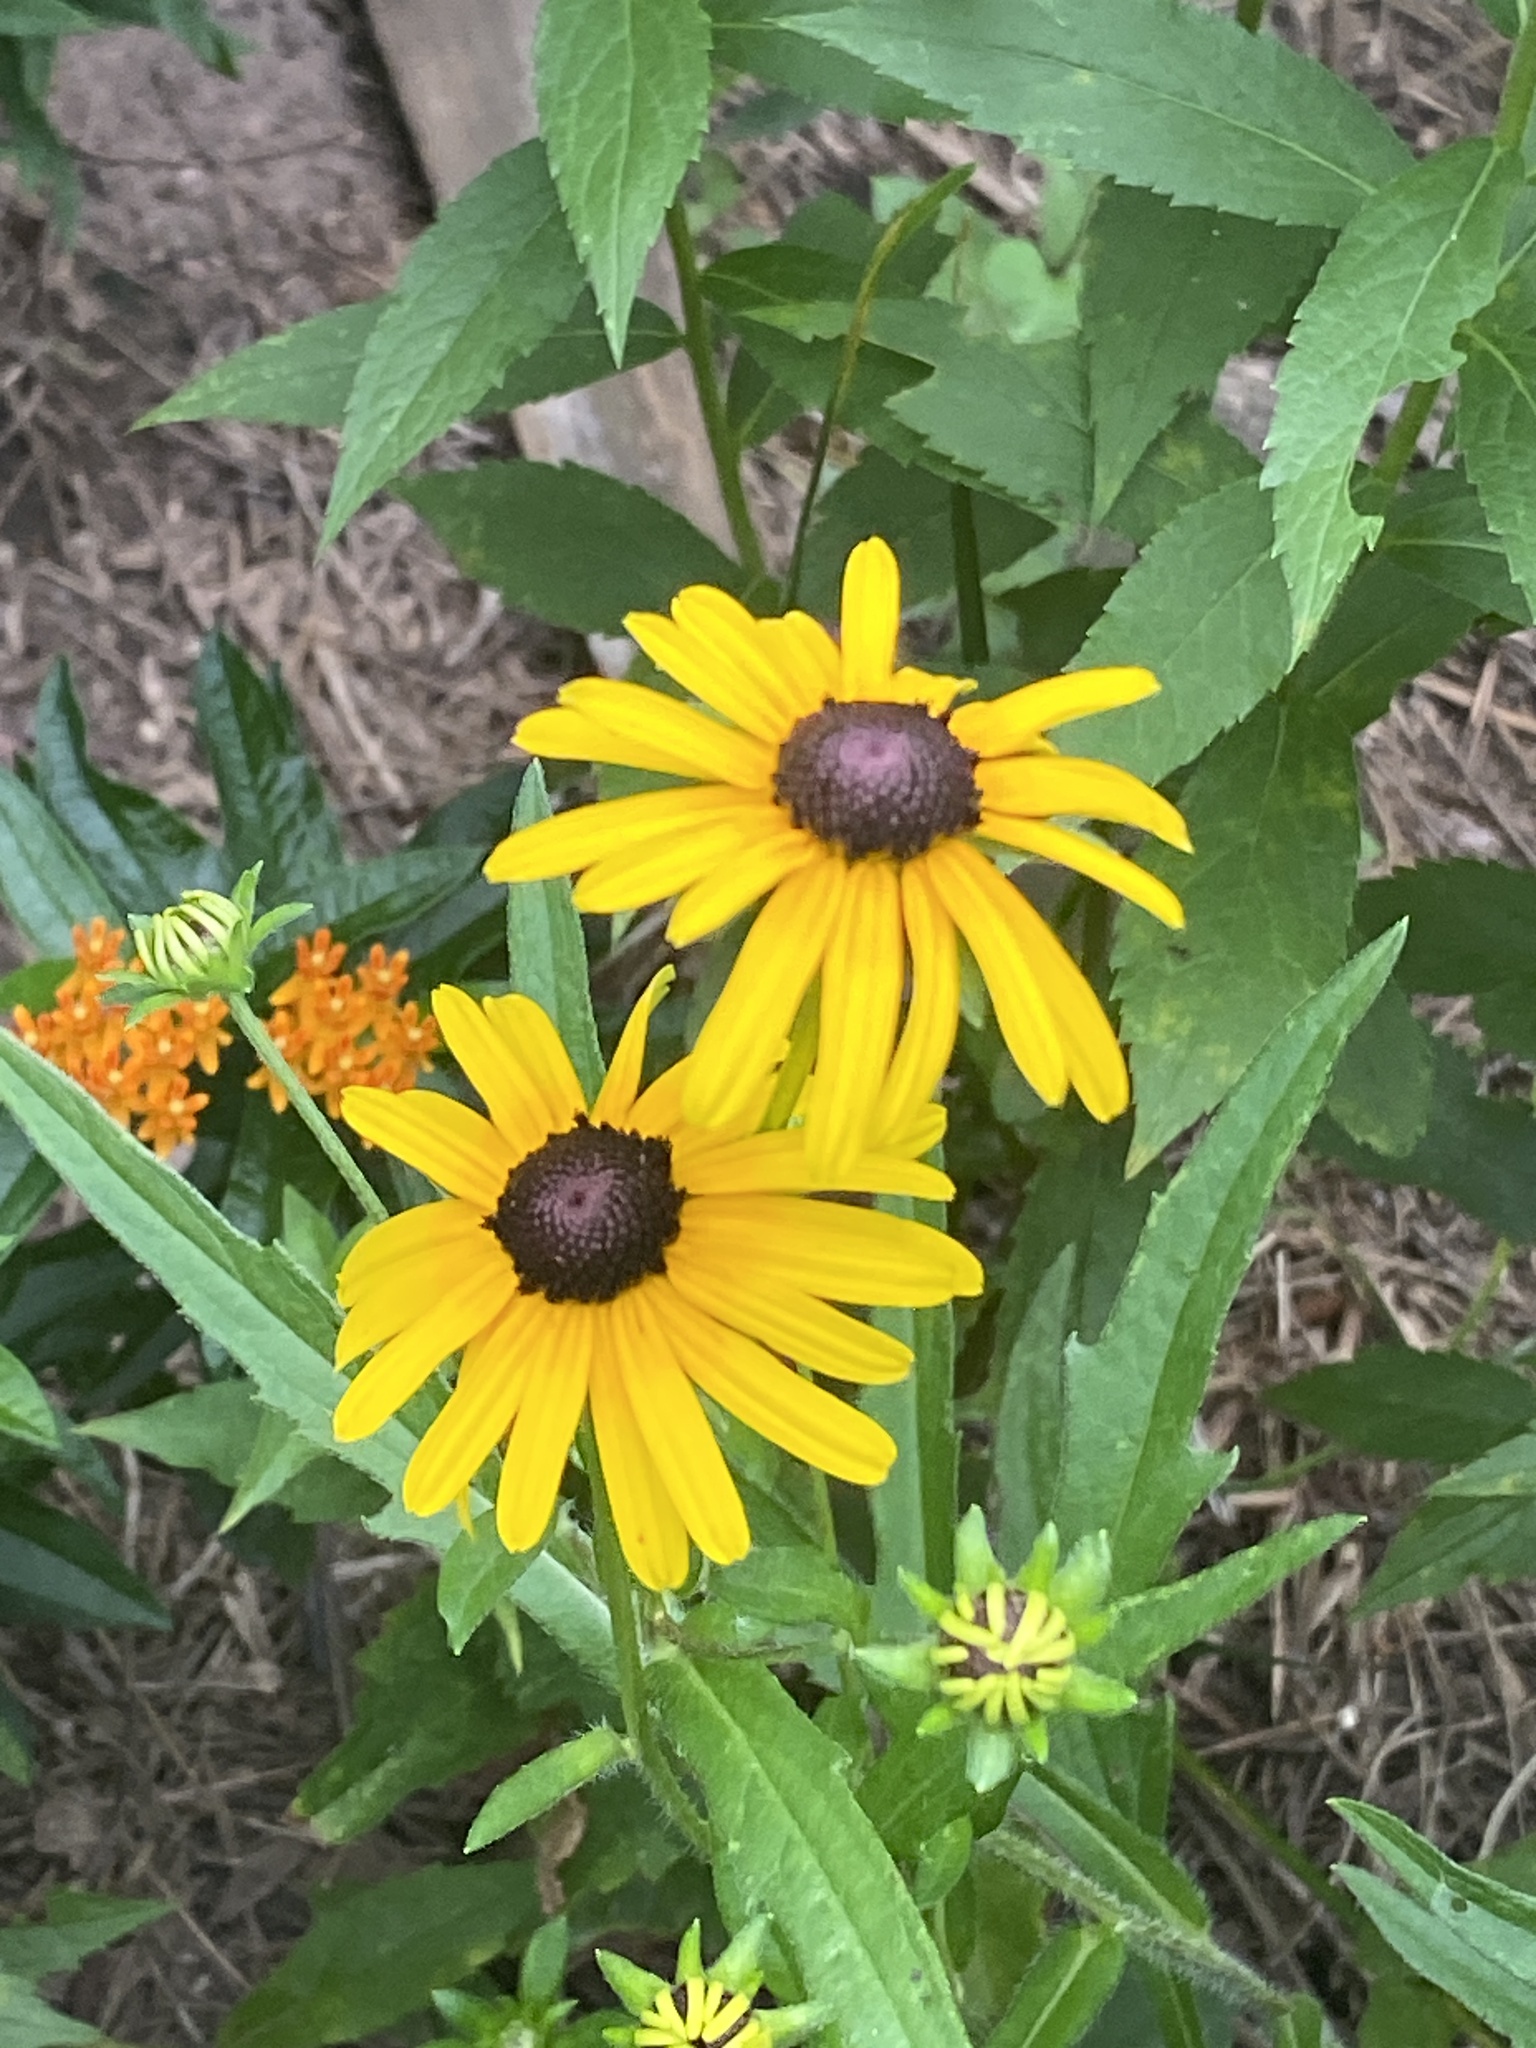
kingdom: Plantae
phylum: Tracheophyta
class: Magnoliopsida
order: Asterales
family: Asteraceae
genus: Rudbeckia
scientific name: Rudbeckia hirta
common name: Black-eyed-susan
